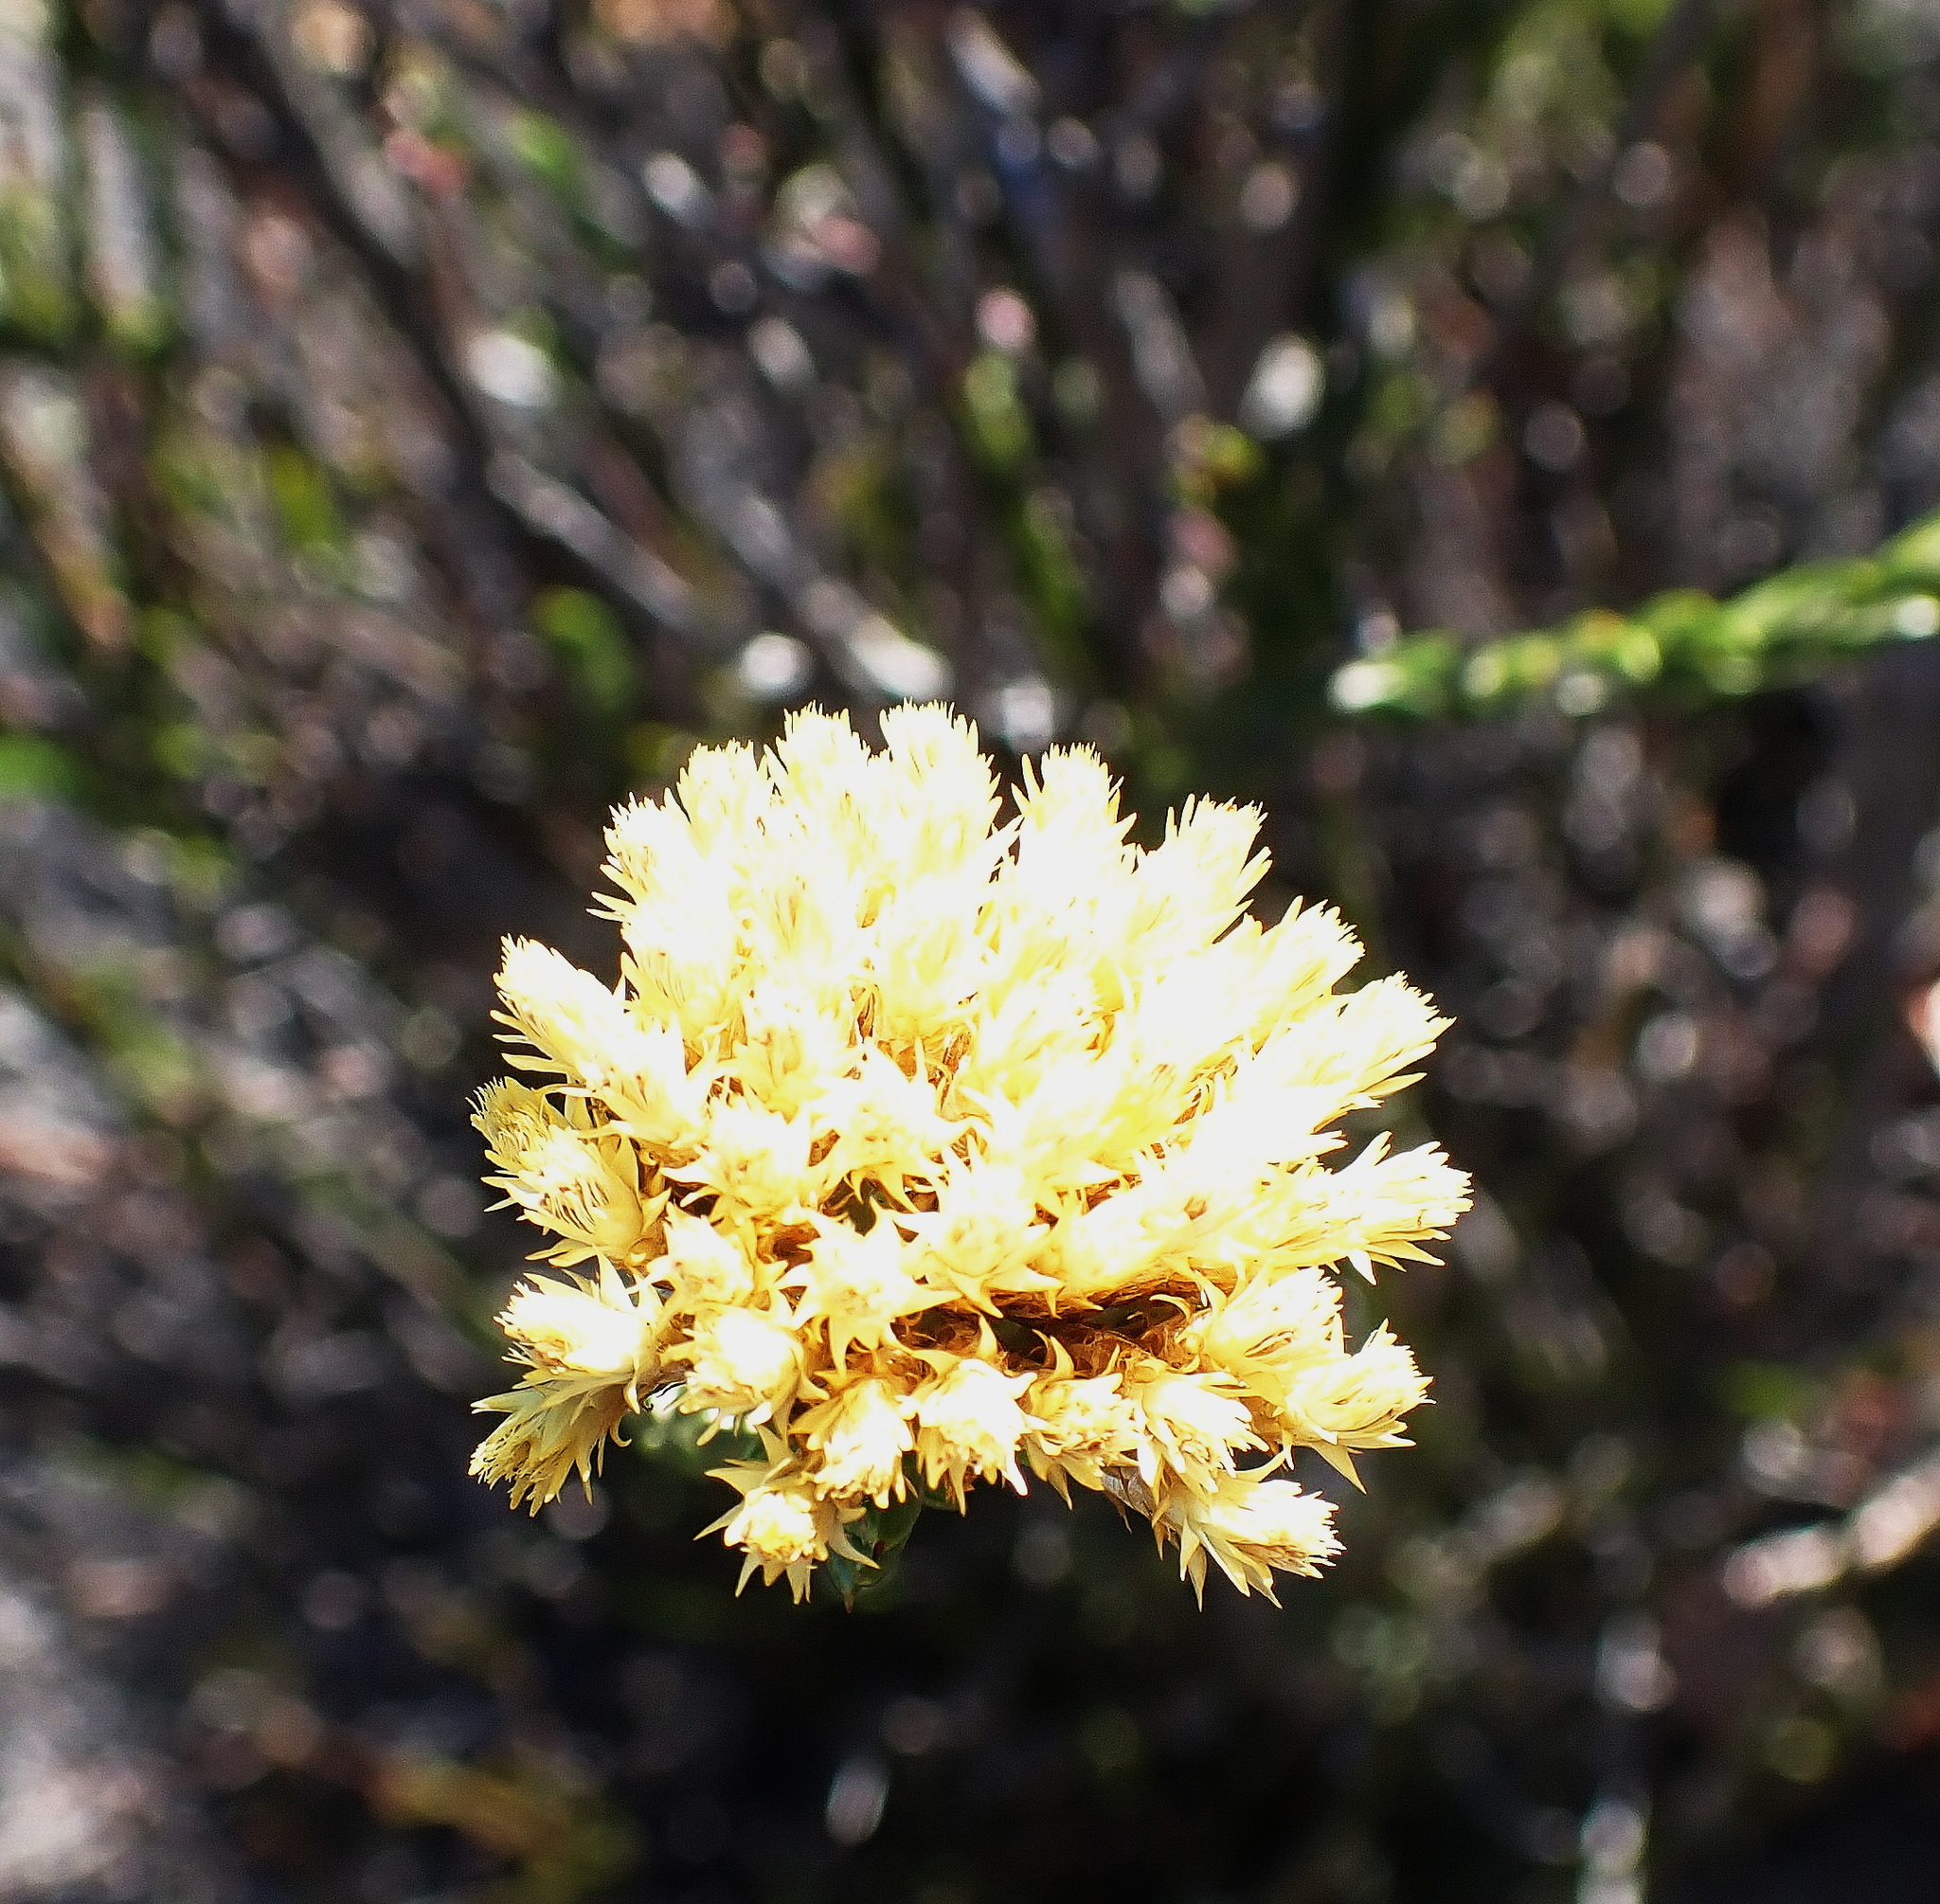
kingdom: Plantae
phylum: Tracheophyta
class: Magnoliopsida
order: Asterales
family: Asteraceae
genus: Metalasia
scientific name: Metalasia pulcherrima
